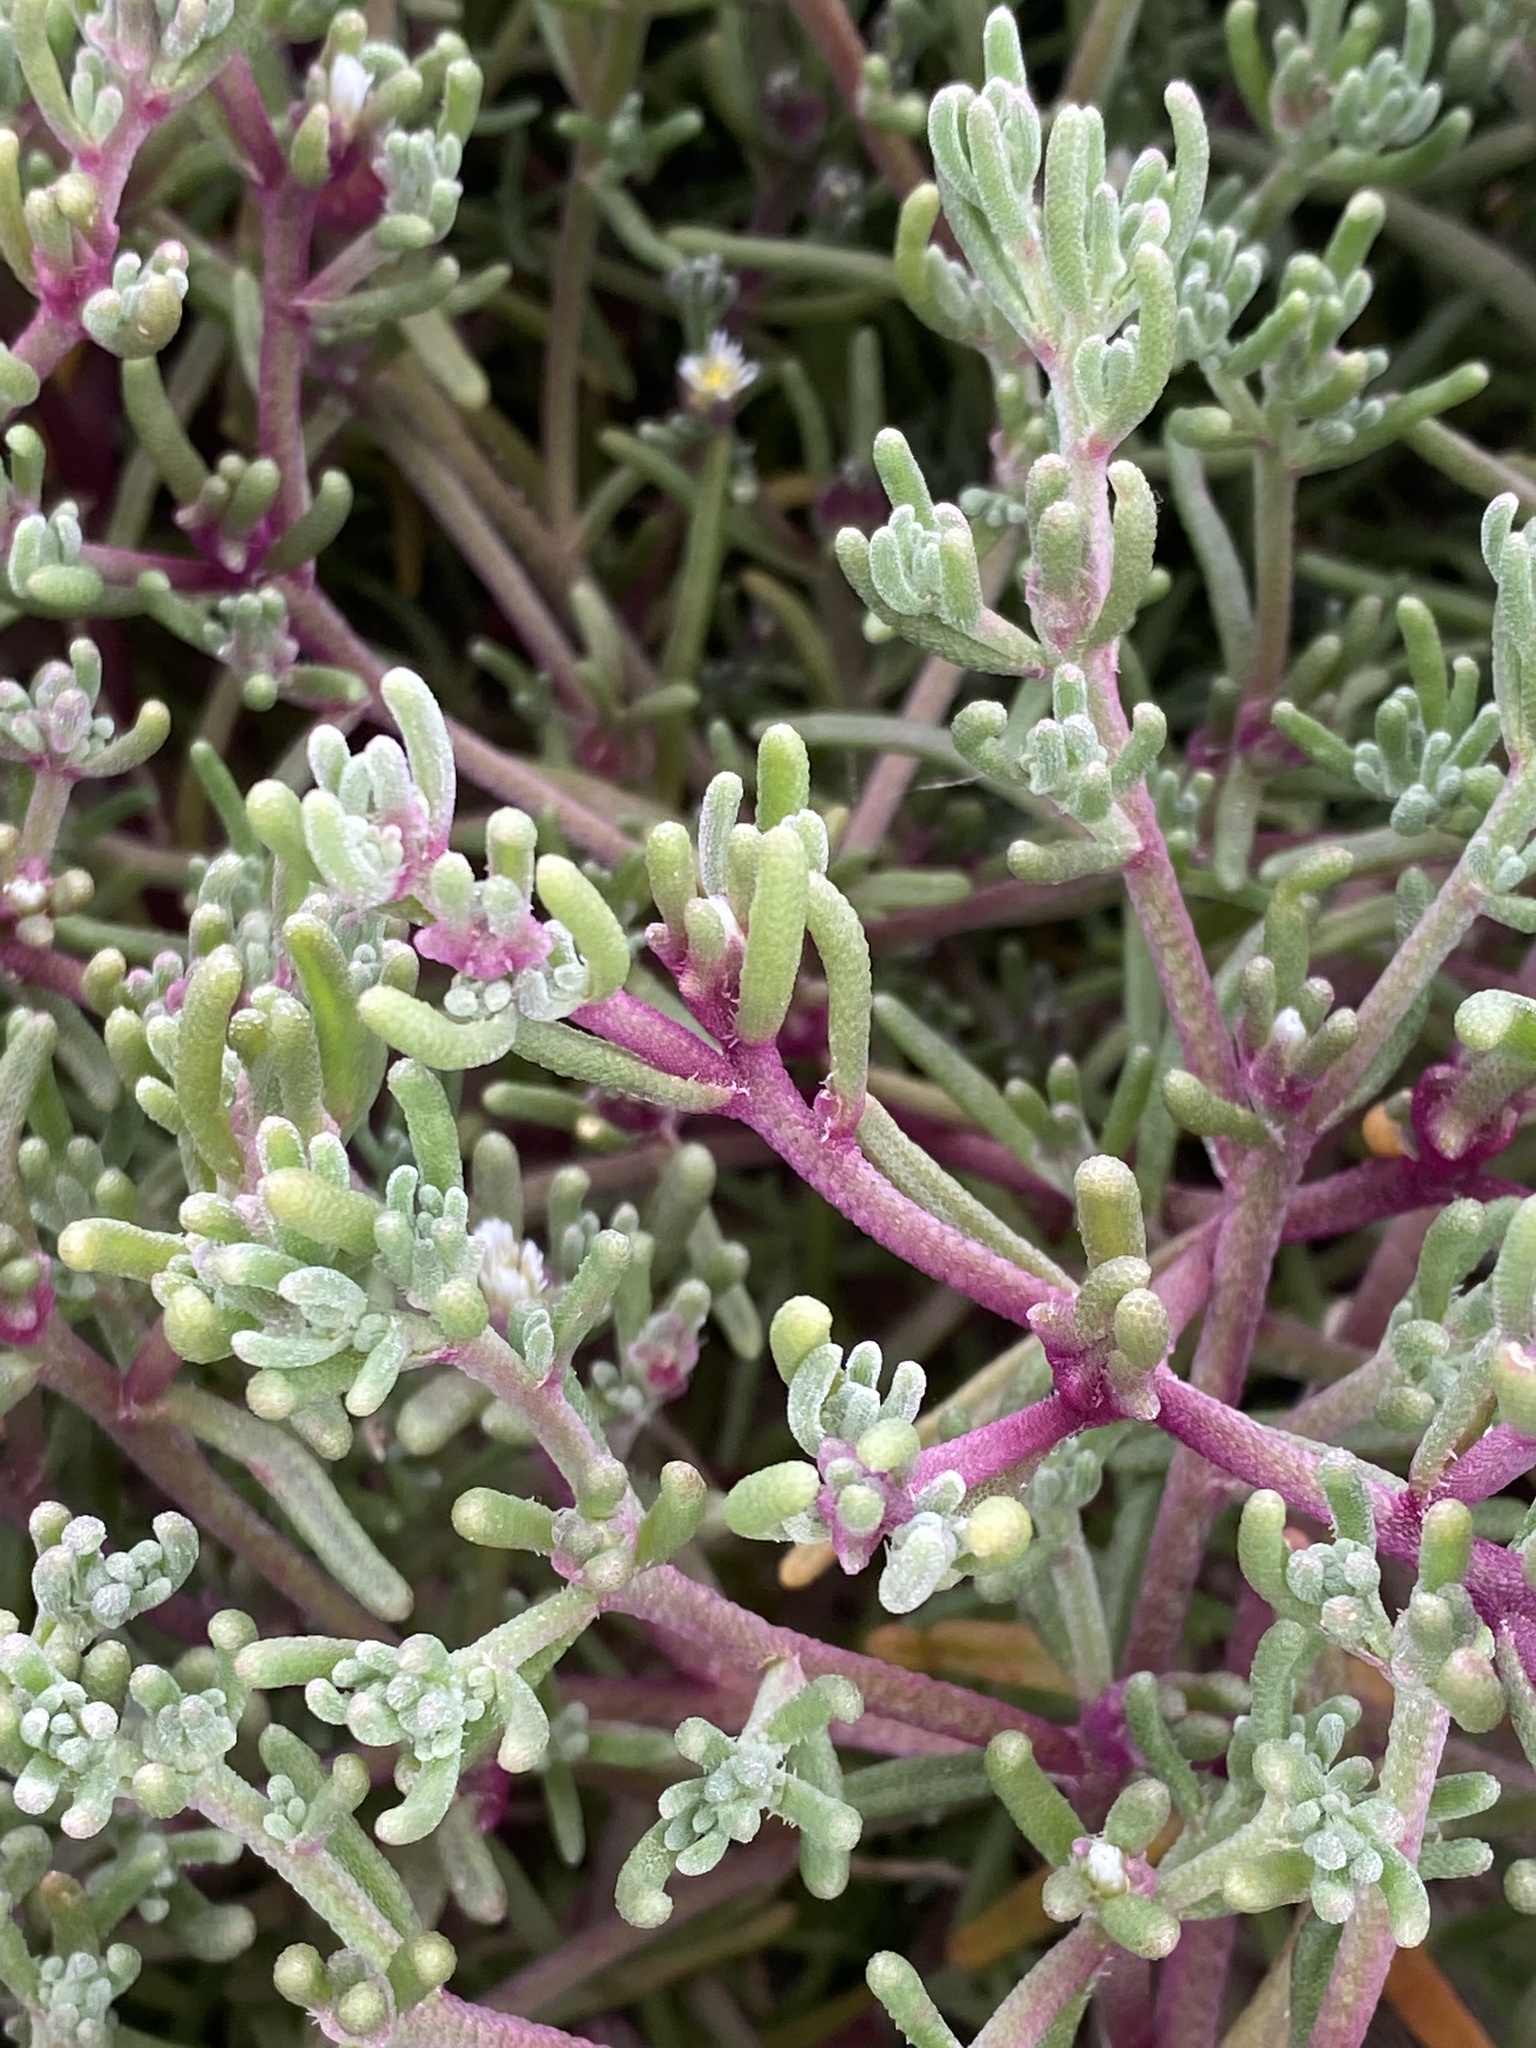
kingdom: Plantae
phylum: Tracheophyta
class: Magnoliopsida
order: Caryophyllales
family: Aizoaceae
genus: Mesembryanthemum
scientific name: Mesembryanthemum nodiflorum
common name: Slenderleaf iceplant
